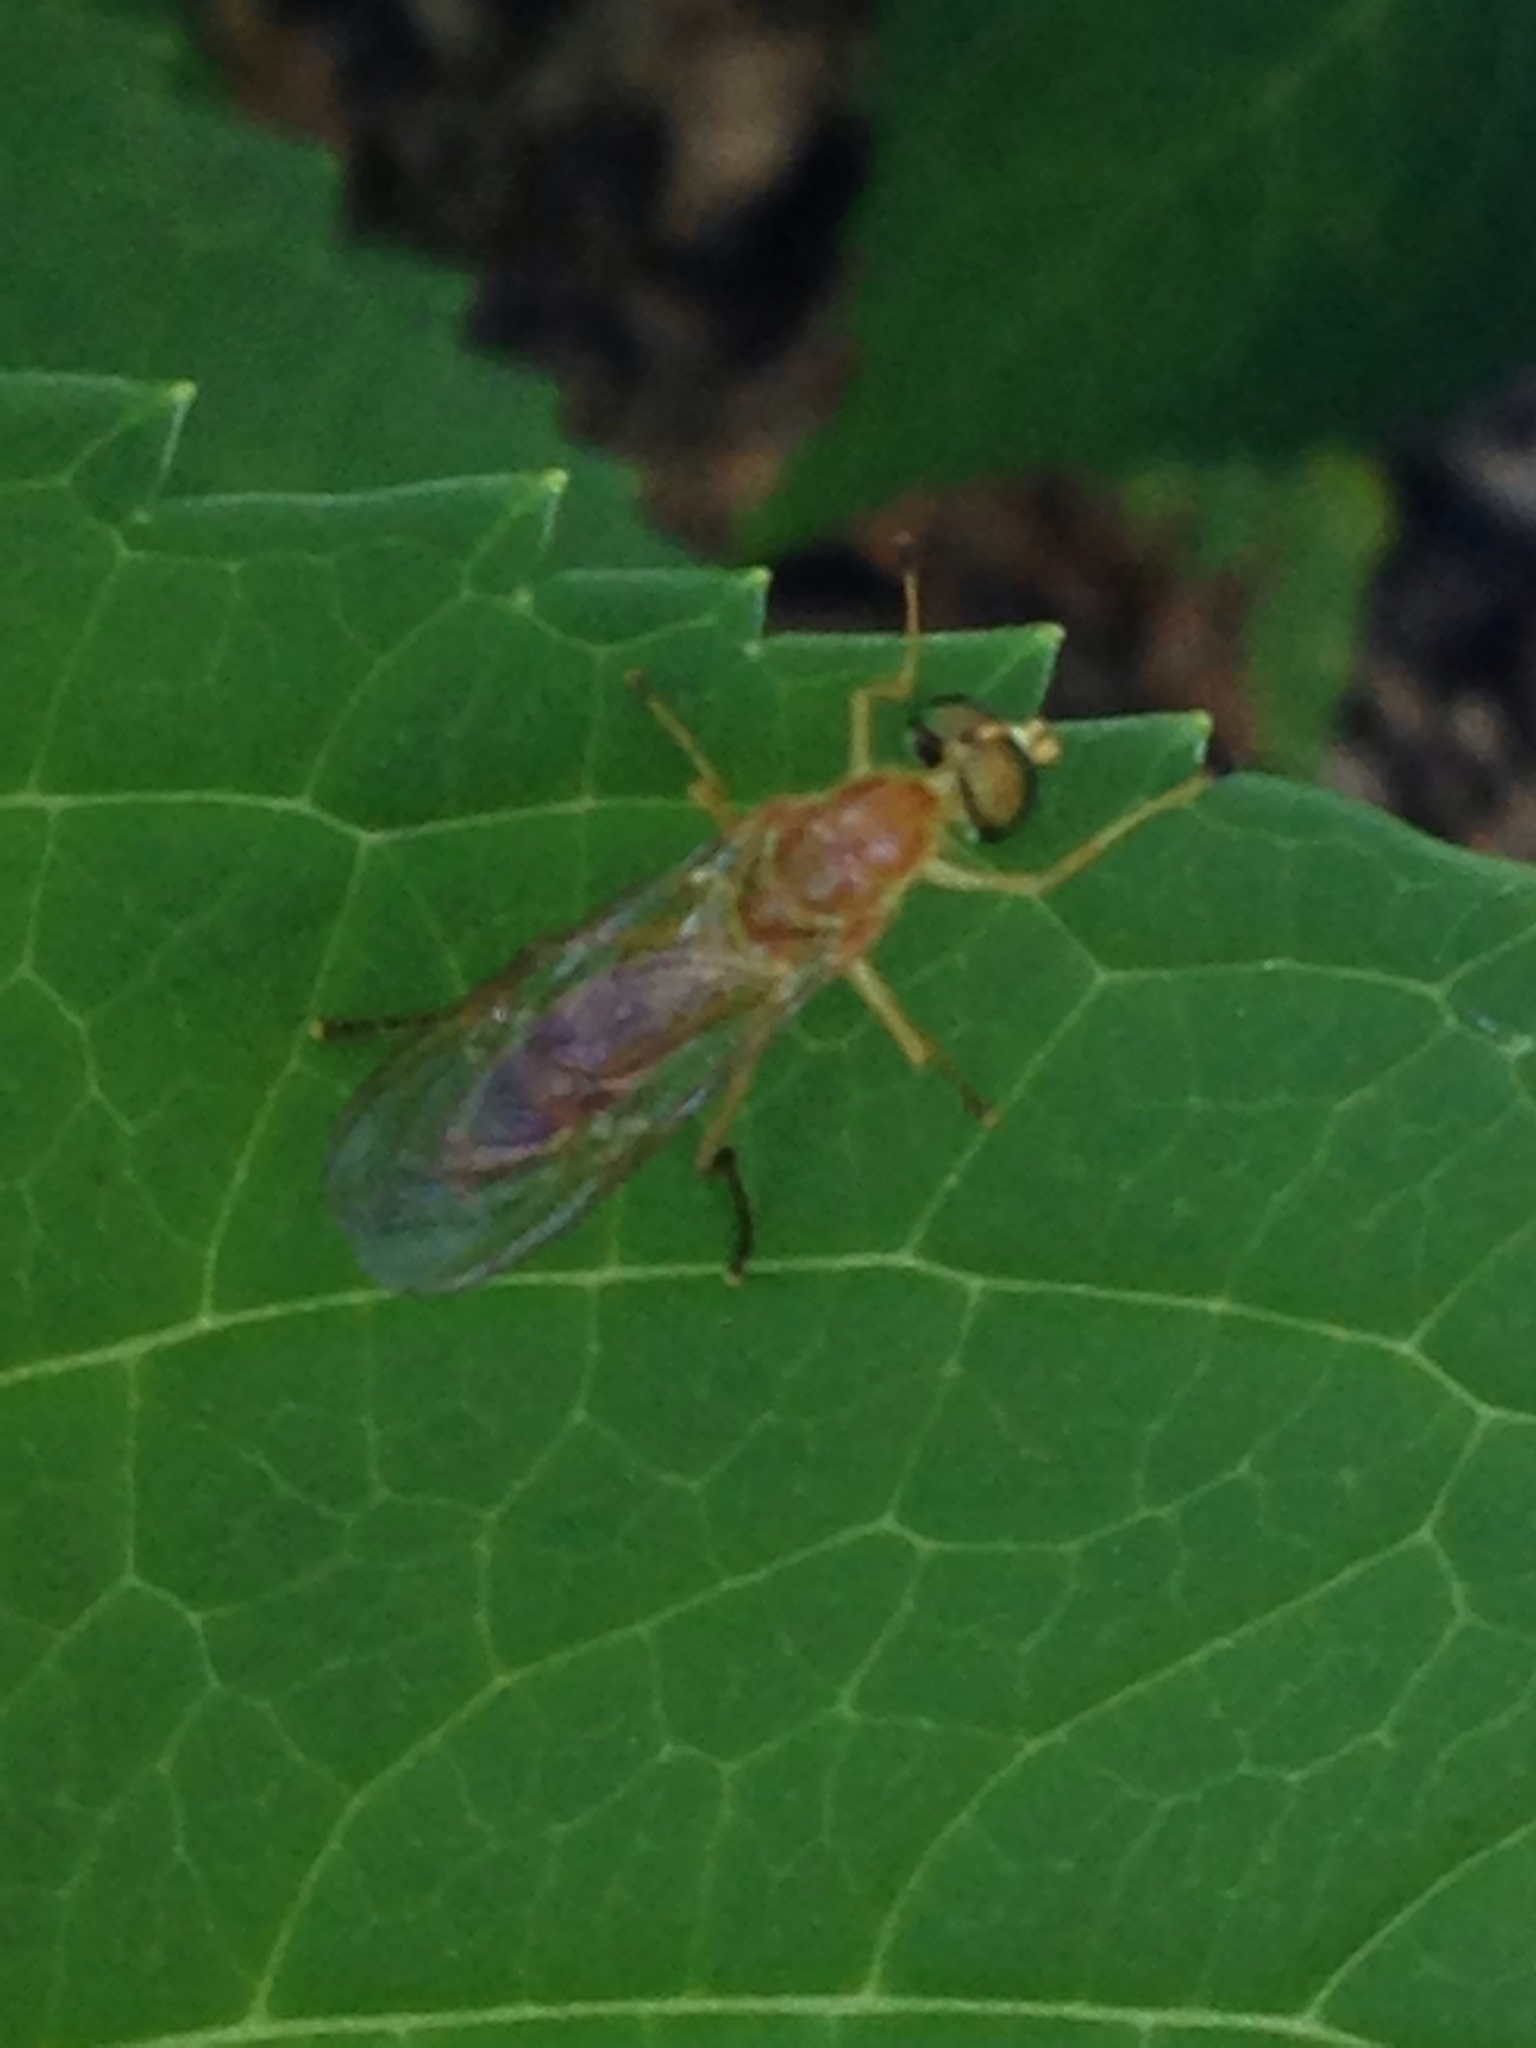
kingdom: Animalia
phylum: Arthropoda
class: Insecta
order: Diptera
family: Stratiomyidae
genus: Ptecticus
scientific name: Ptecticus trivittatus
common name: Compost fly
